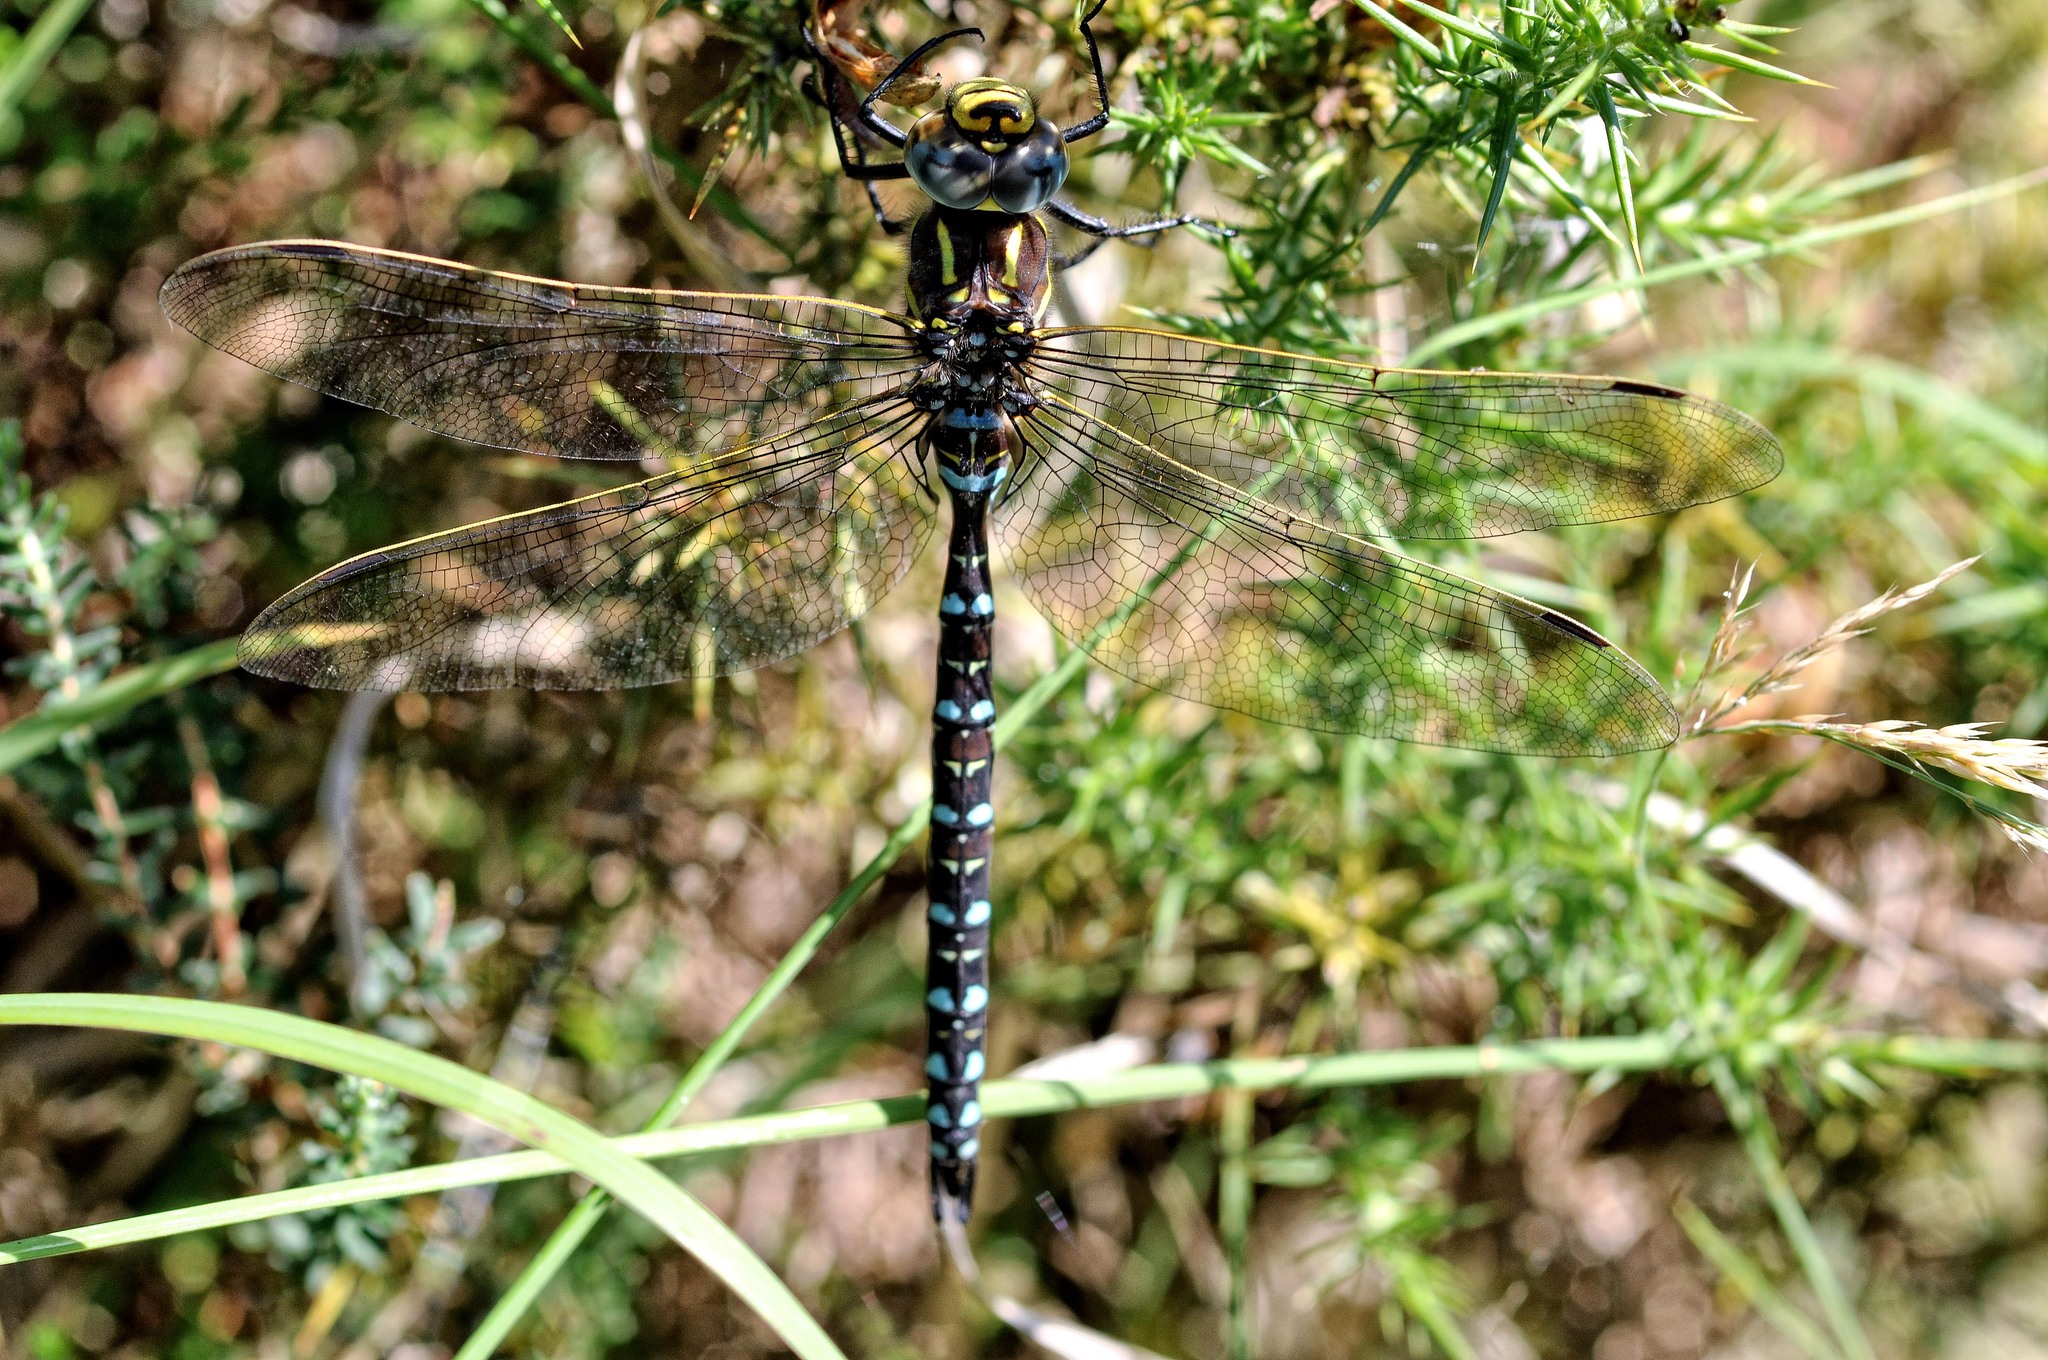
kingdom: Animalia
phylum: Arthropoda
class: Insecta
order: Odonata
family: Aeshnidae
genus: Aeshna
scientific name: Aeshna juncea
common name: Moorland hawker
